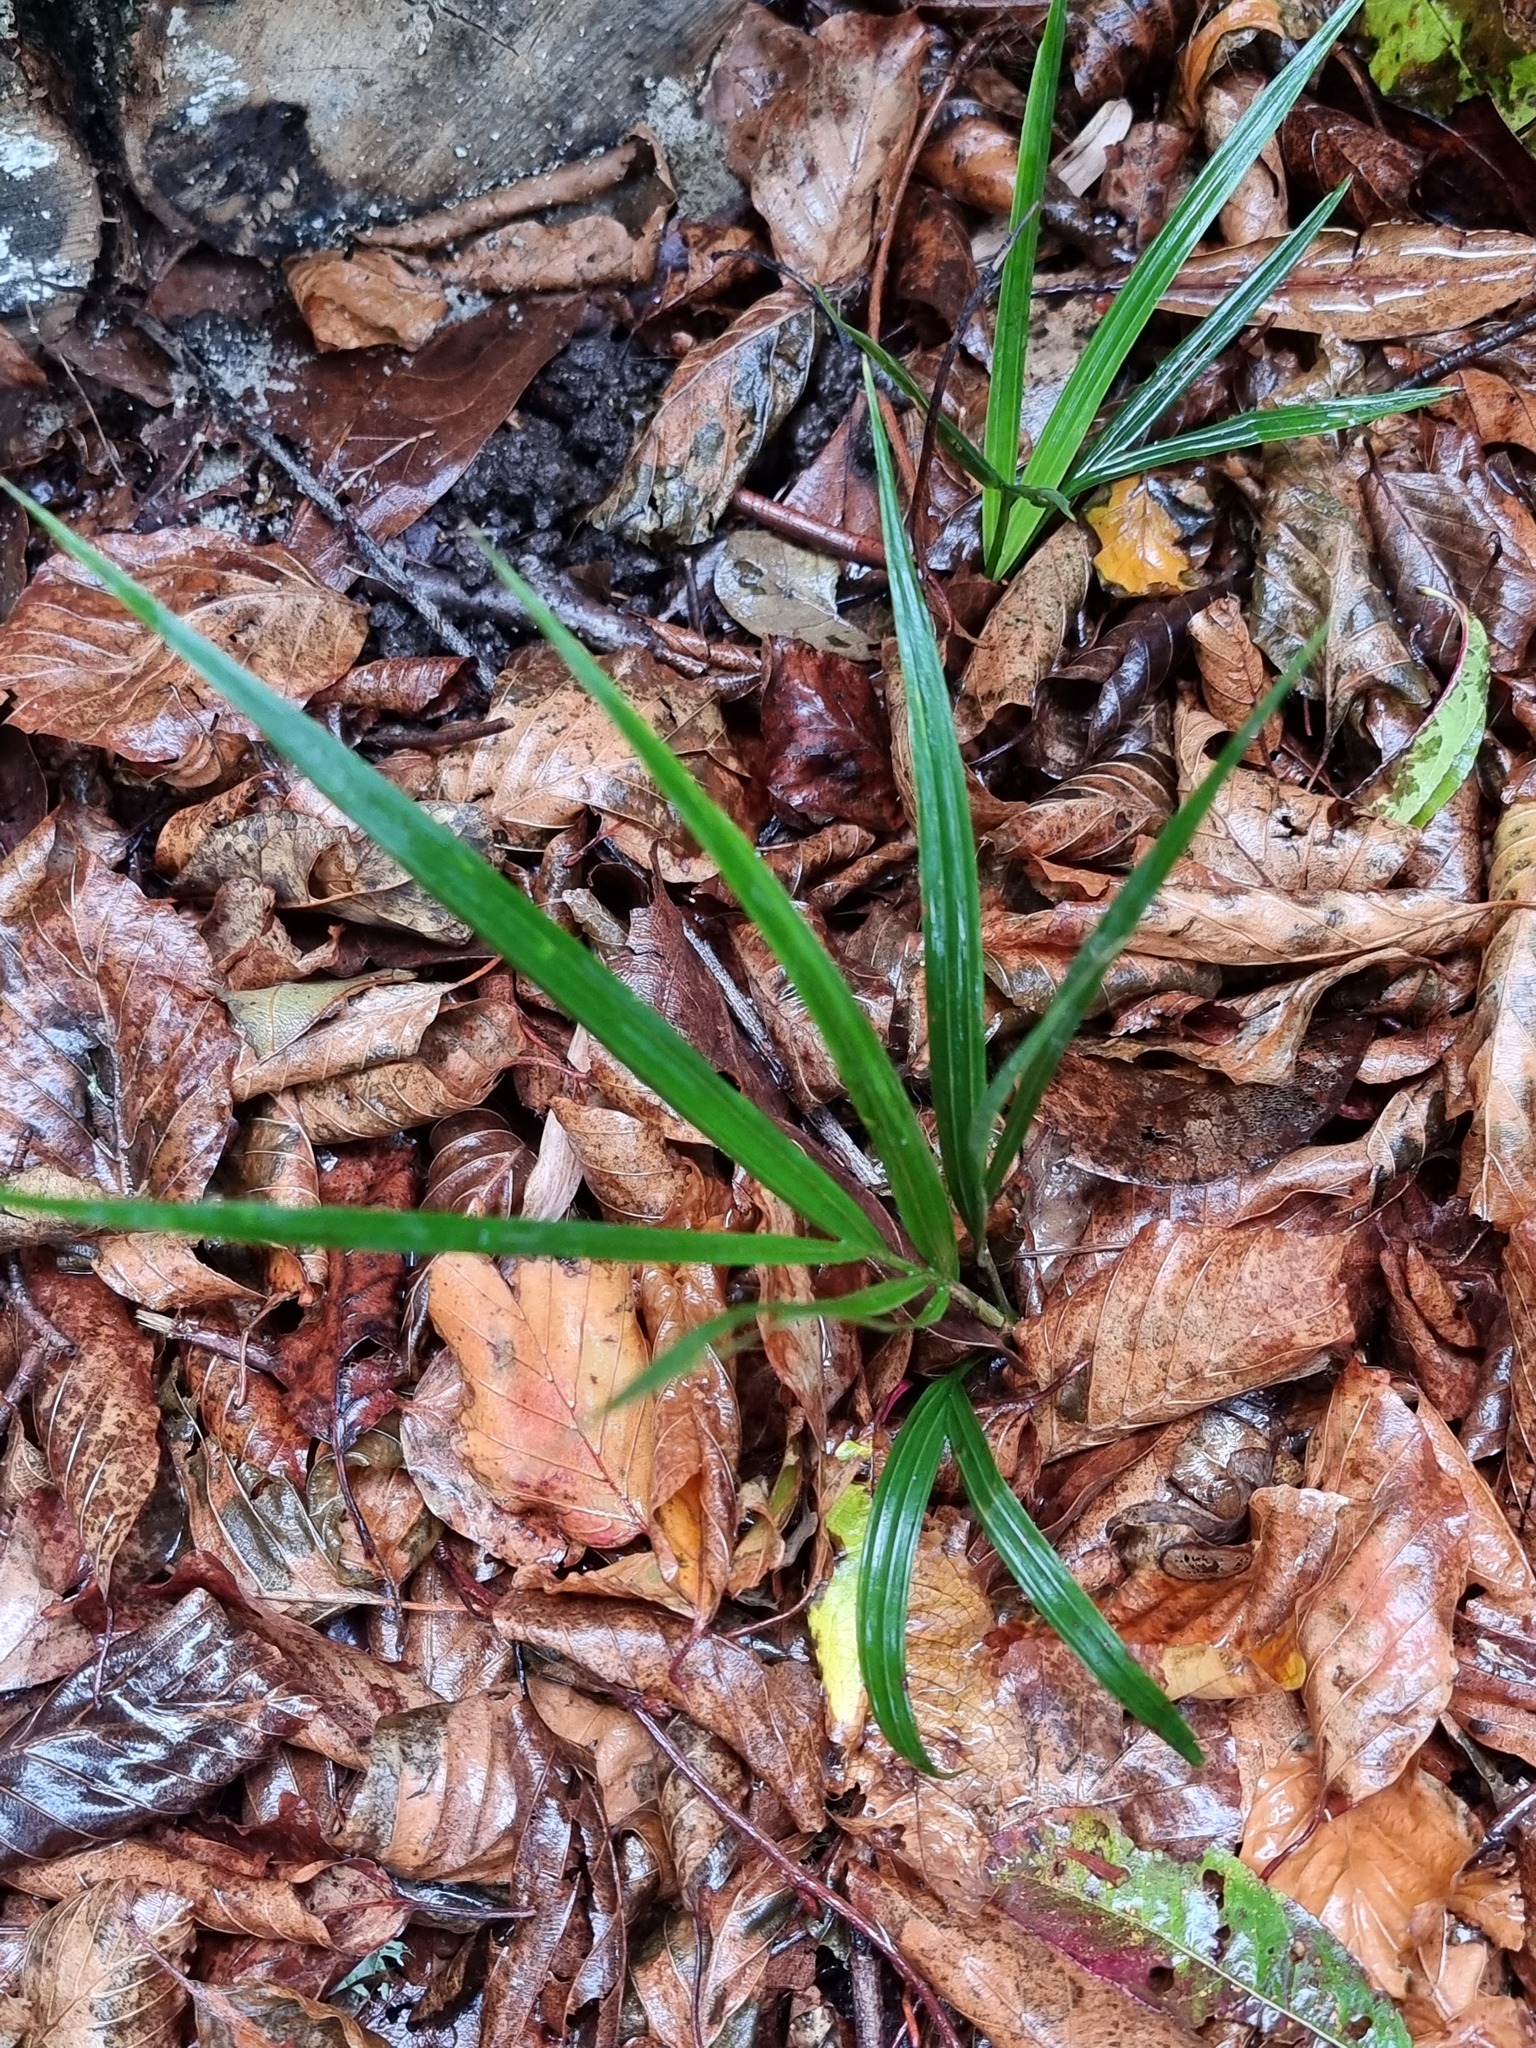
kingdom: Plantae
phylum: Tracheophyta
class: Liliopsida
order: Arecales
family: Arecaceae
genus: Rhopalostylis
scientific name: Rhopalostylis sapida
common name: Feather-duster palm
